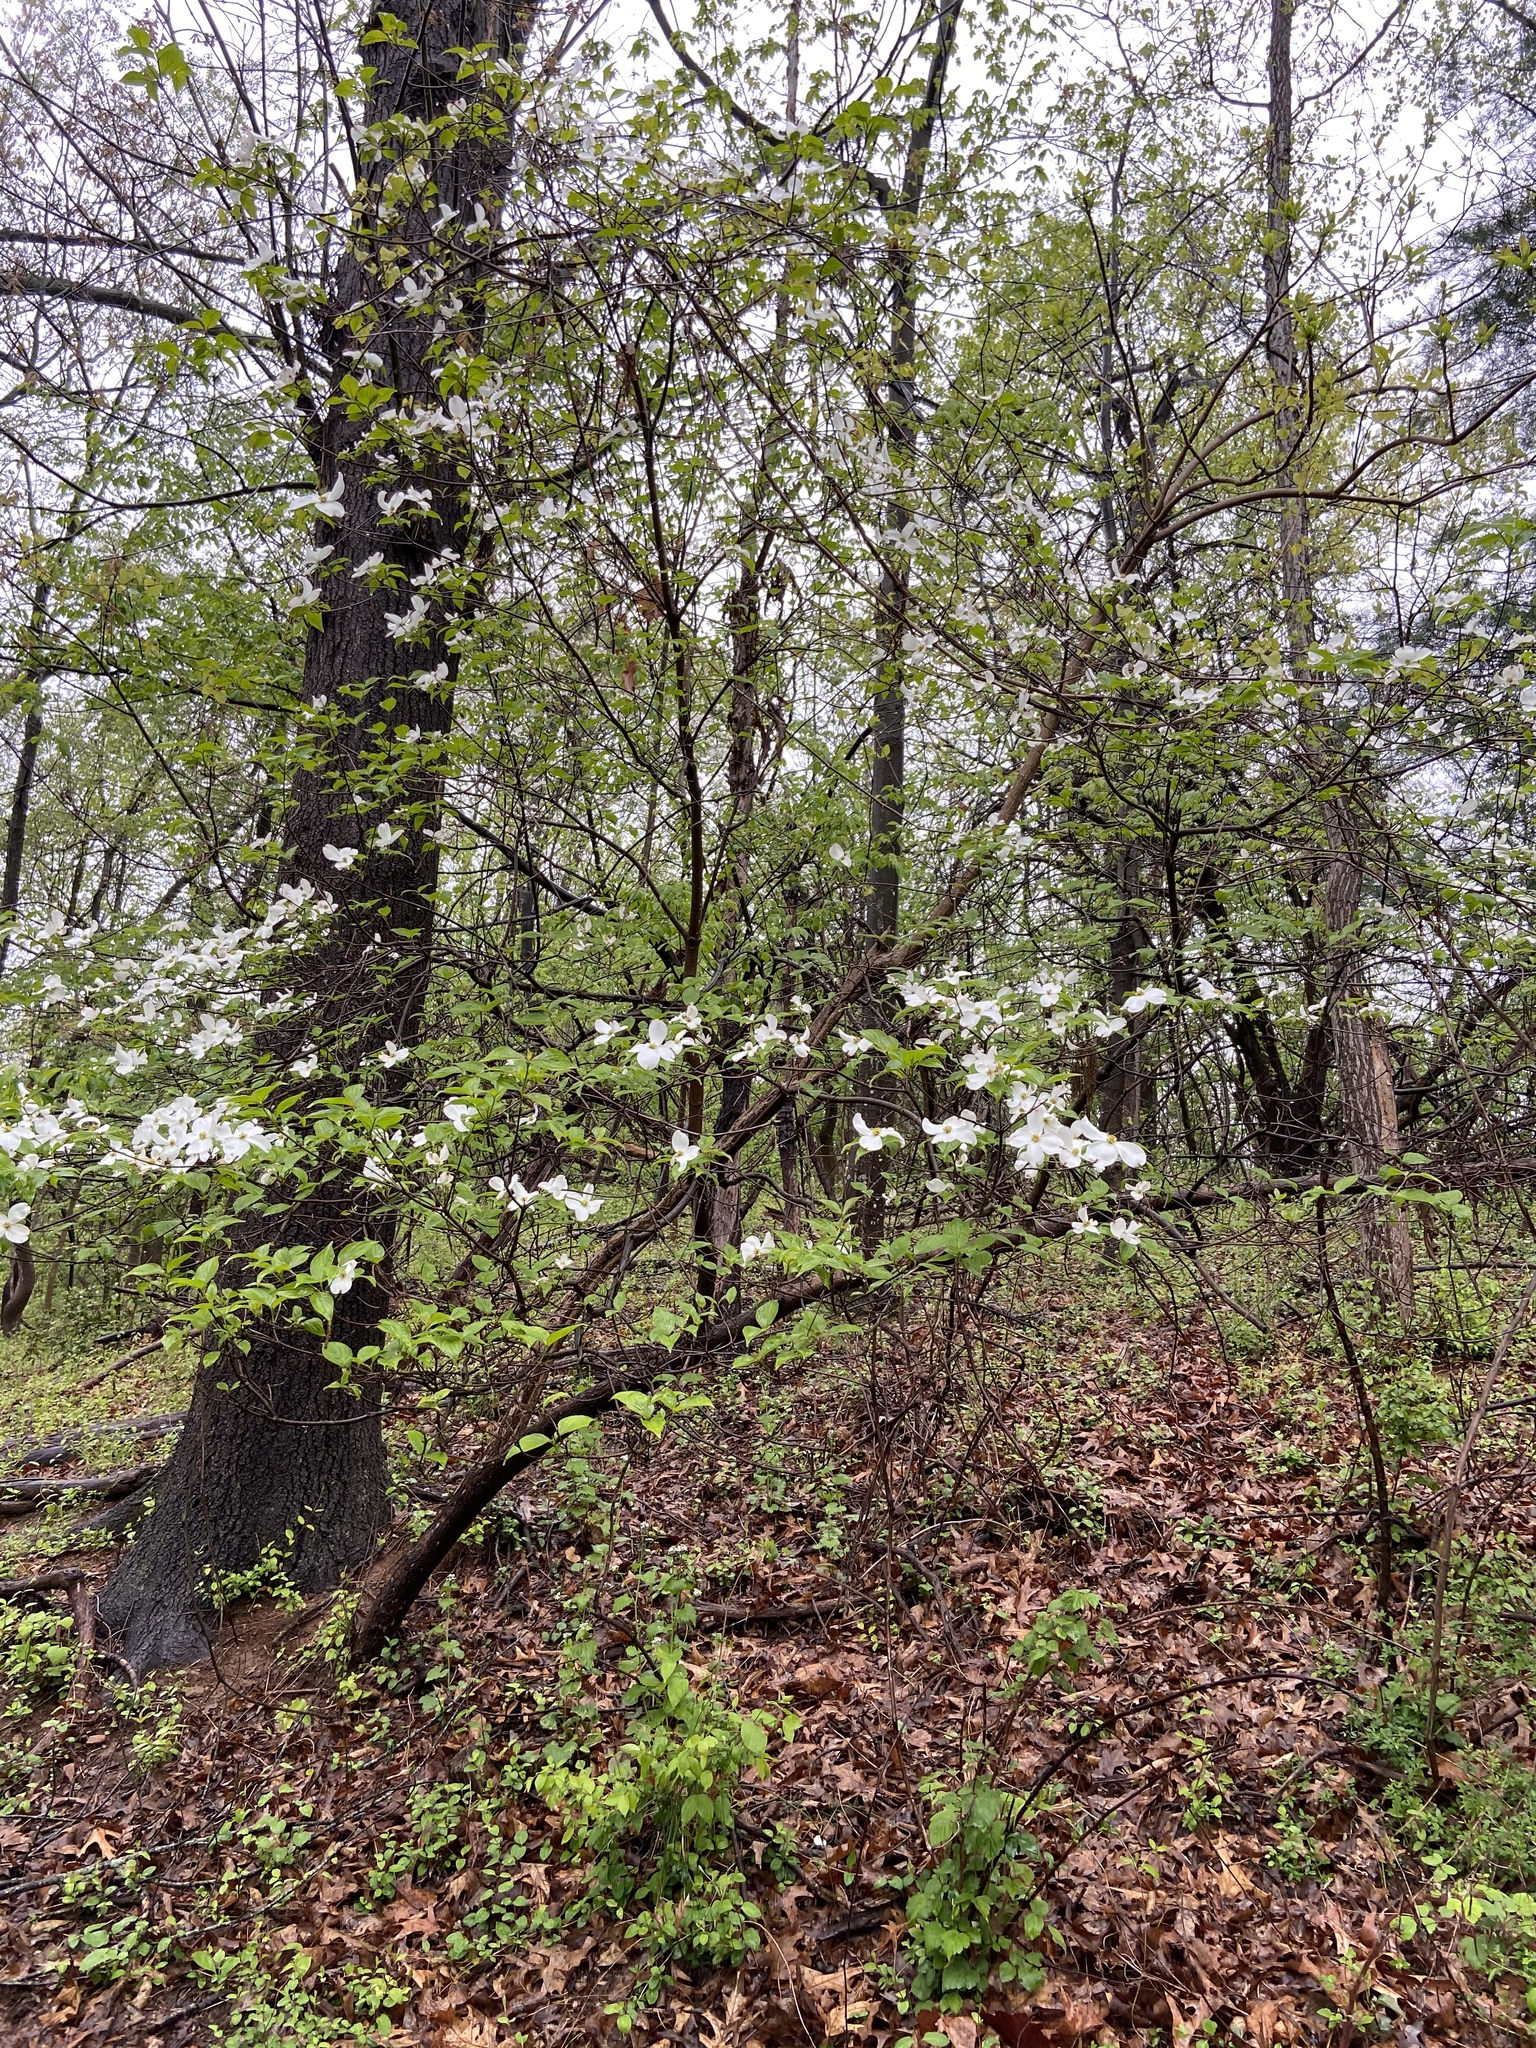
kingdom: Plantae
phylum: Tracheophyta
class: Magnoliopsida
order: Cornales
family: Cornaceae
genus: Cornus
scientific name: Cornus florida
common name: Flowering dogwood
